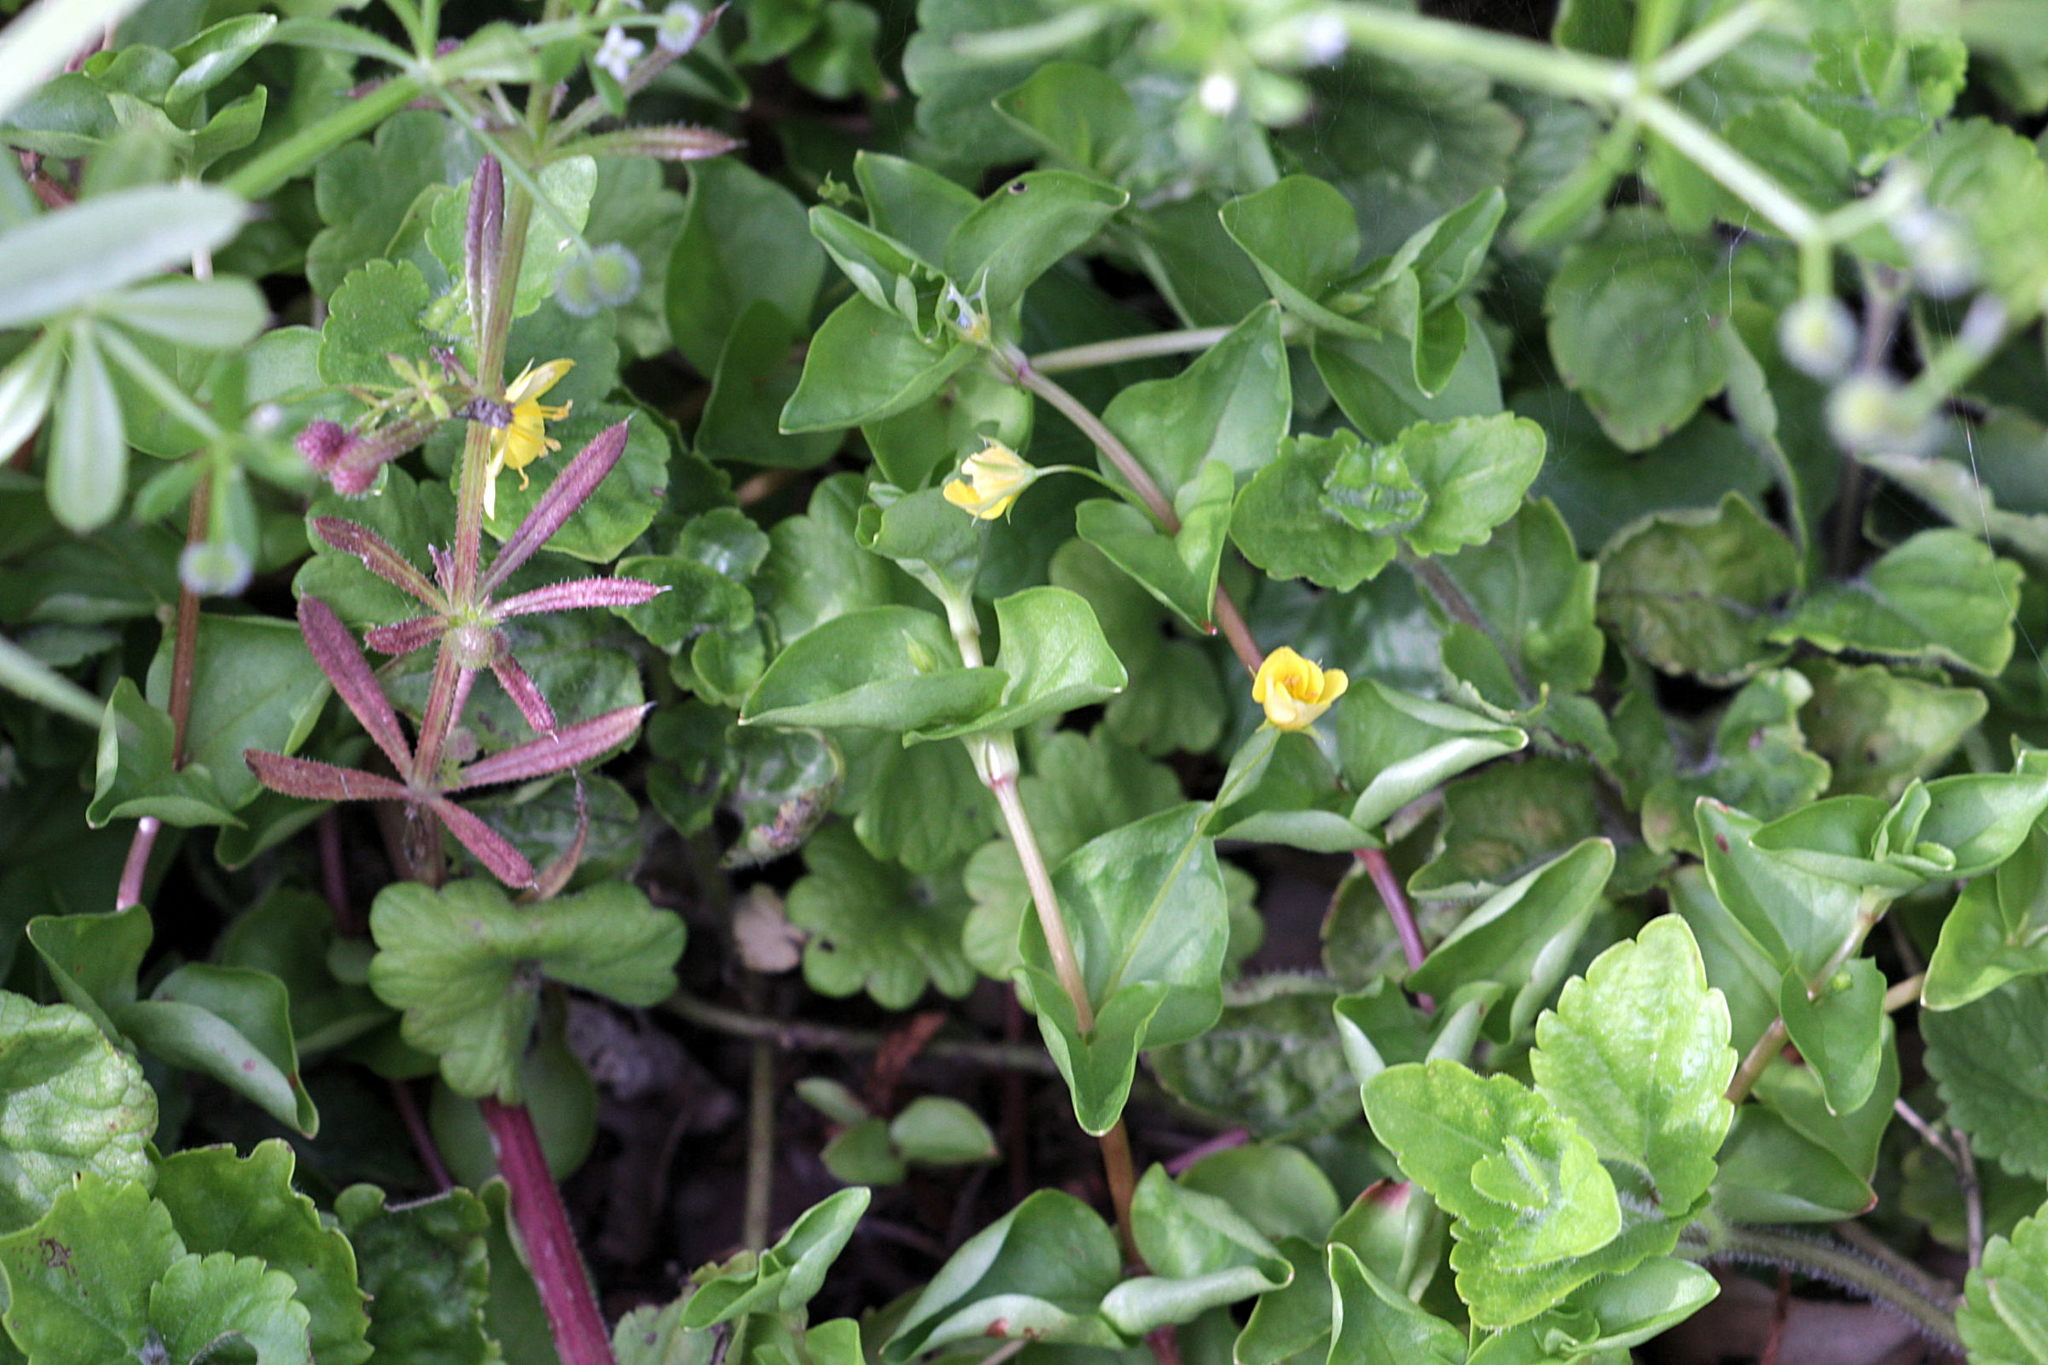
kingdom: Plantae
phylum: Tracheophyta
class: Magnoliopsida
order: Ericales
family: Primulaceae
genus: Lysimachia
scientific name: Lysimachia nemorum
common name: Yellow pimpernel
